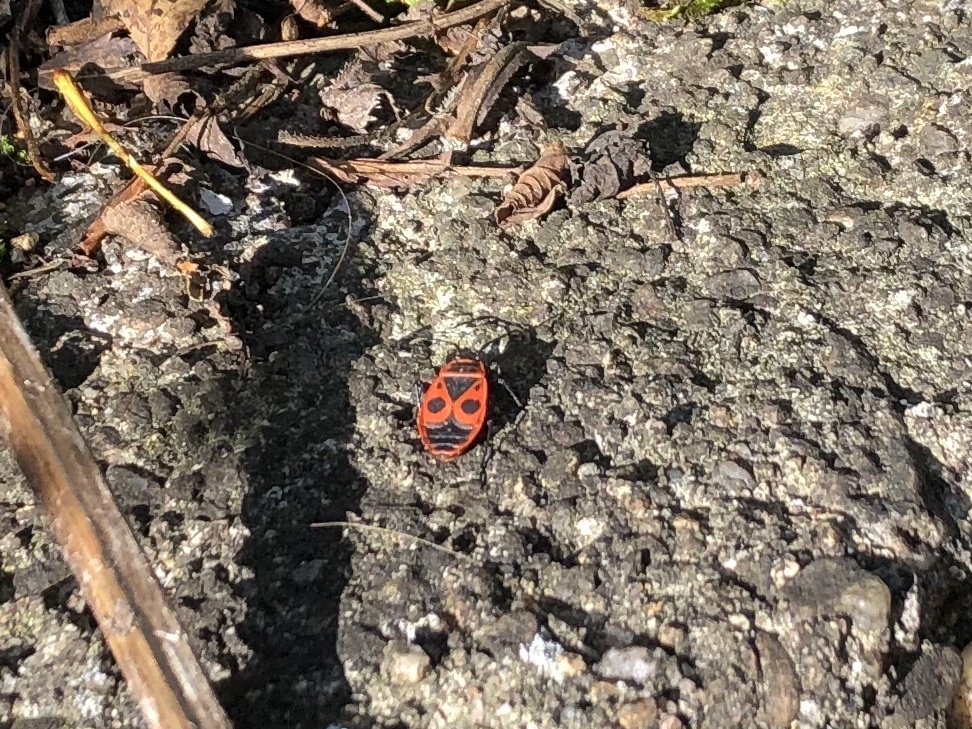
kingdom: Animalia
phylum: Arthropoda
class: Insecta
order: Hemiptera
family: Pyrrhocoridae
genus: Pyrrhocoris
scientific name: Pyrrhocoris apterus
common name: Firebug
